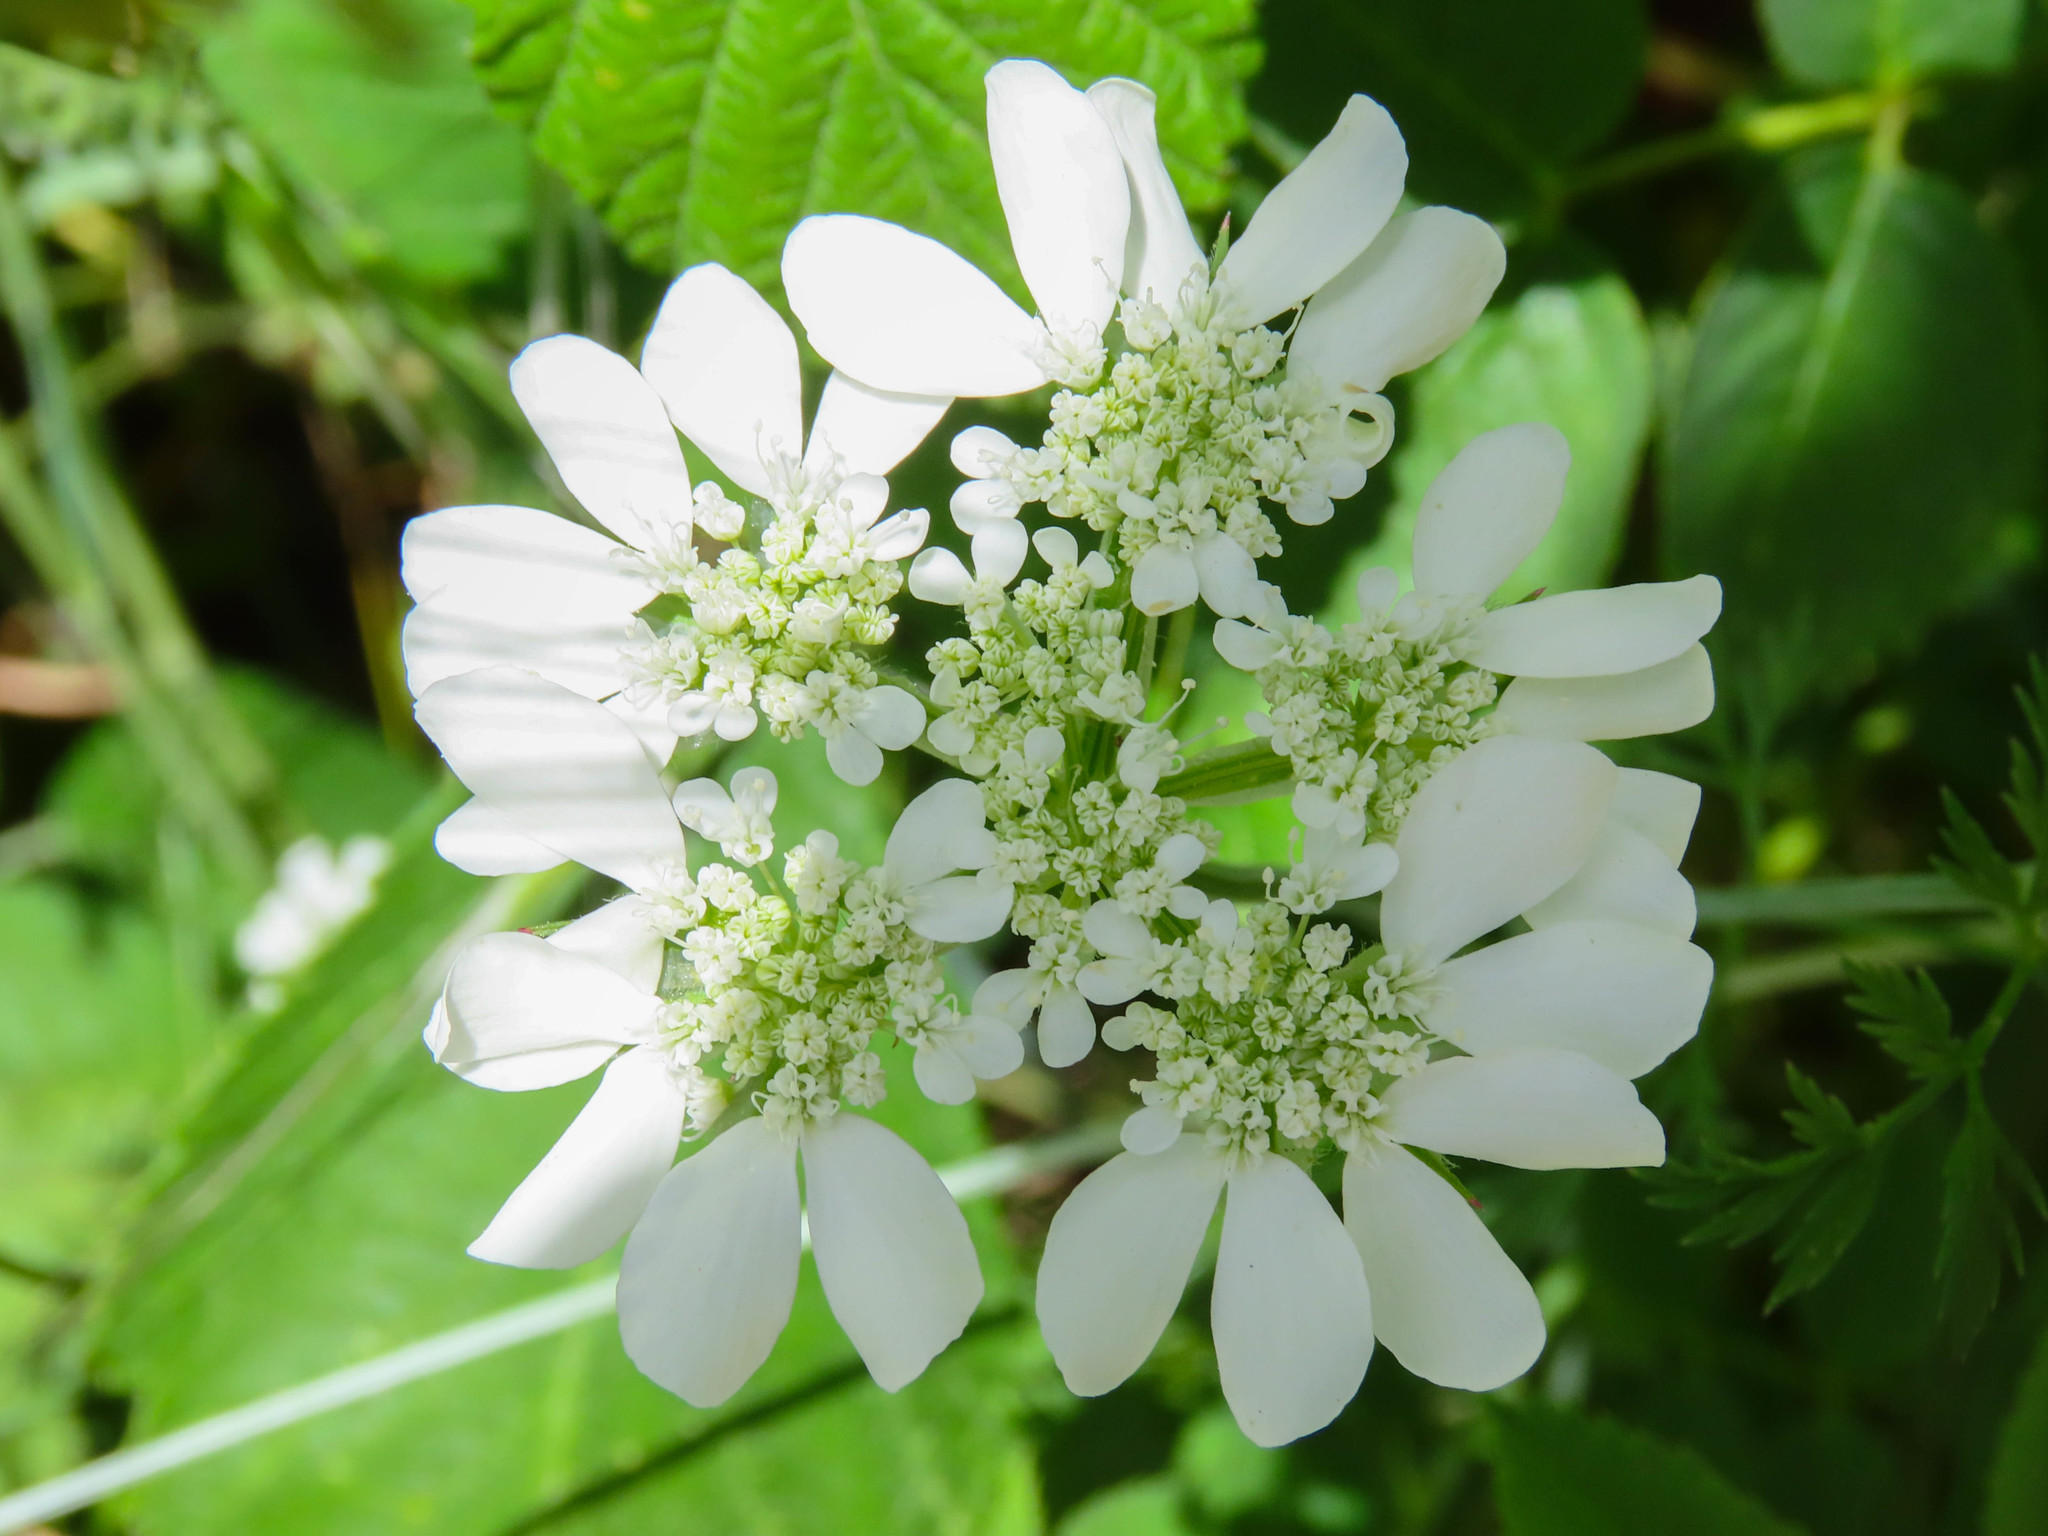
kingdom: Plantae
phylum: Tracheophyta
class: Magnoliopsida
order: Apiales
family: Apiaceae
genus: Orlaya
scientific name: Orlaya grandiflora
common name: White lace flower
